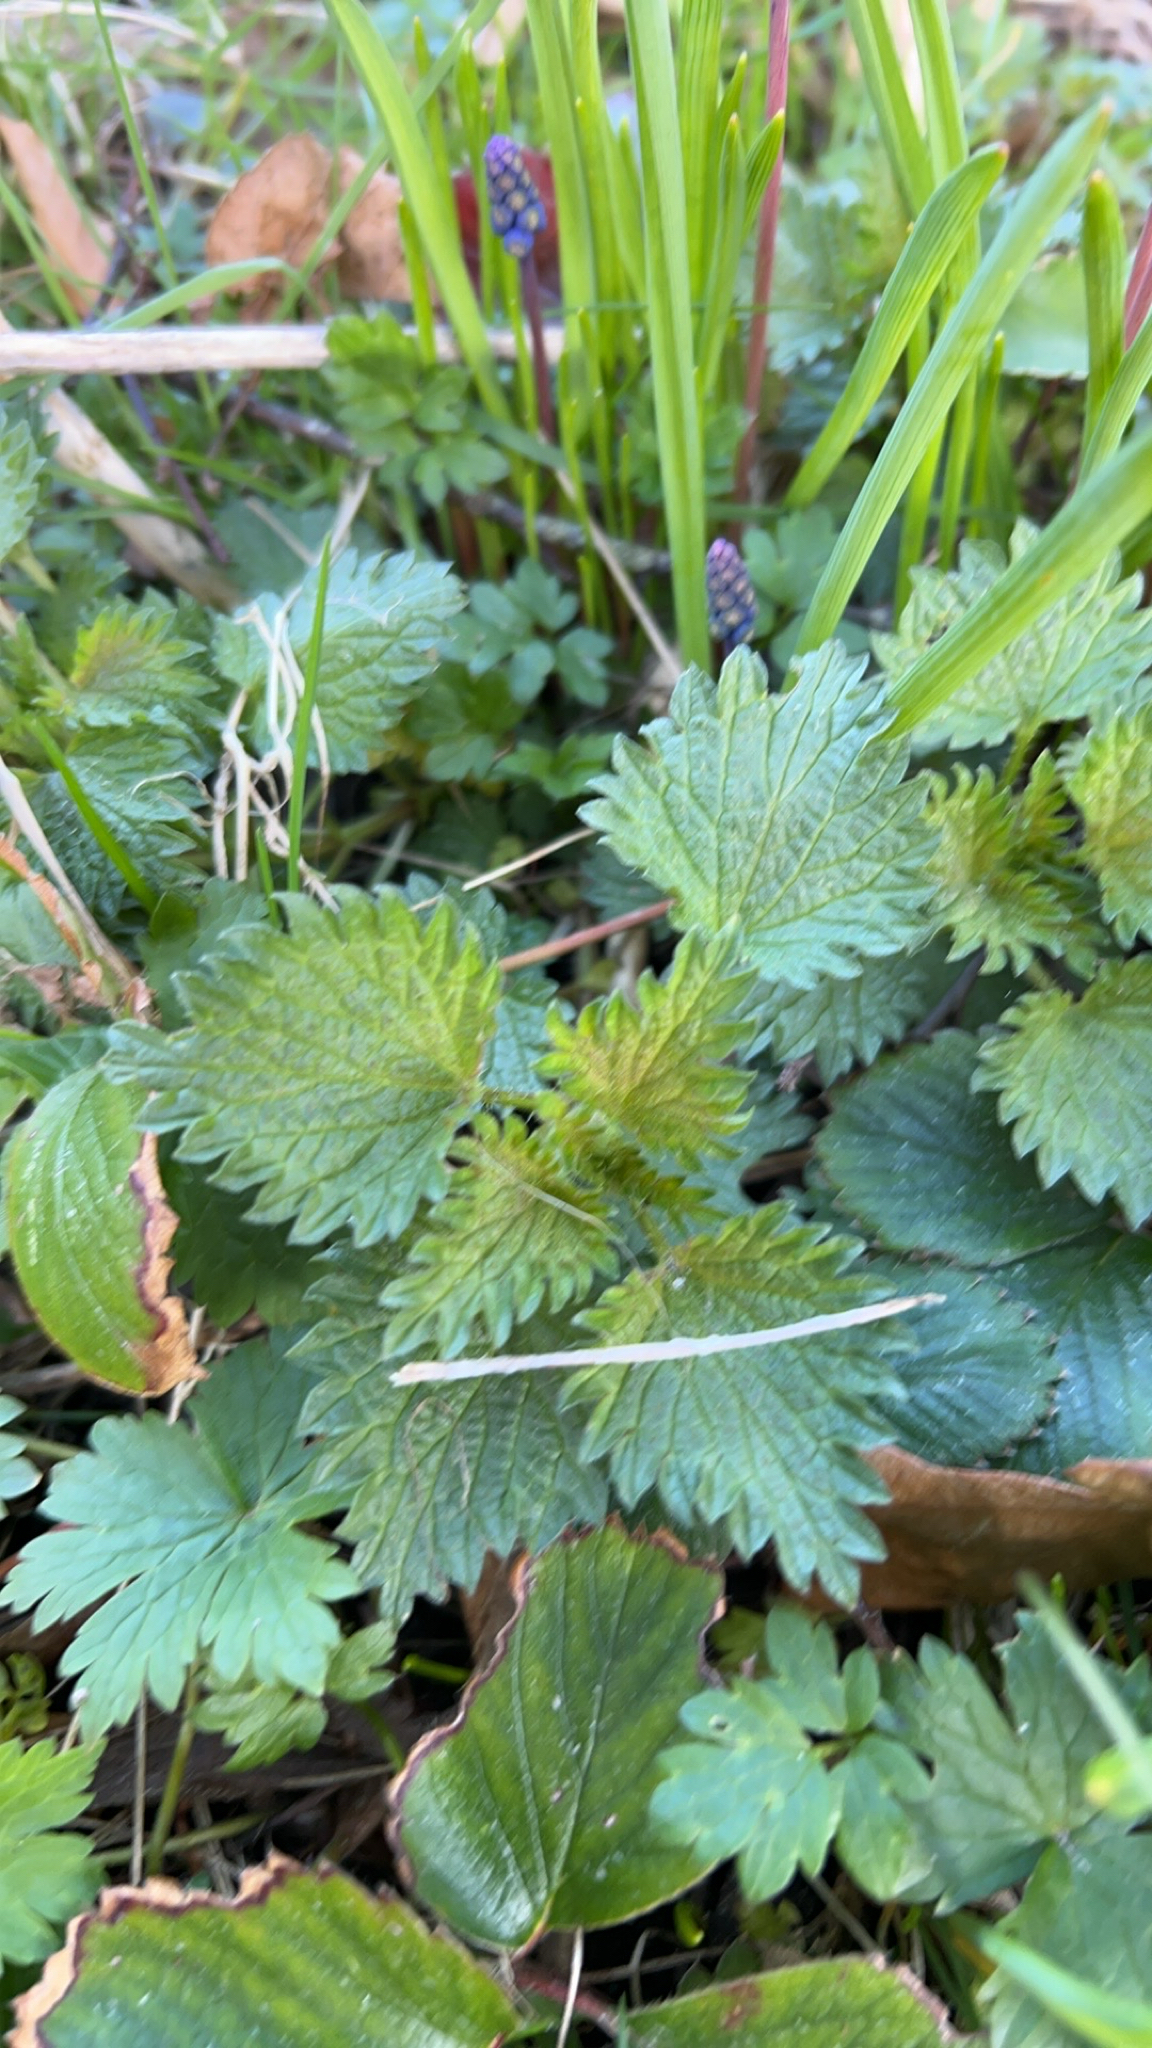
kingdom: Plantae
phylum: Tracheophyta
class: Magnoliopsida
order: Rosales
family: Urticaceae
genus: Urtica
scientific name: Urtica dioica
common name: Common nettle
